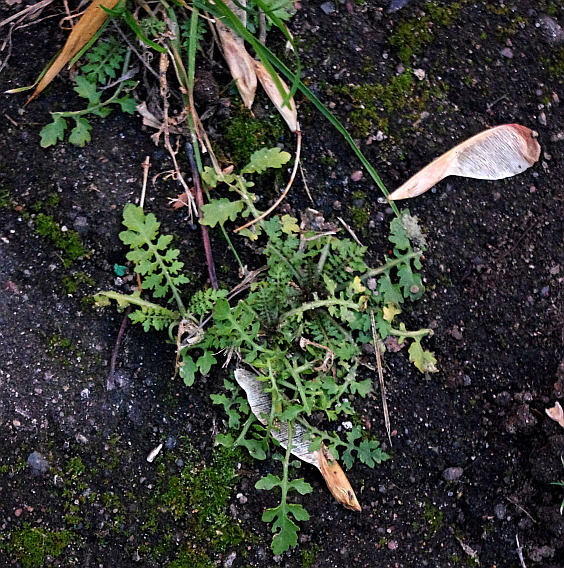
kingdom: Plantae
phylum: Tracheophyta
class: Magnoliopsida
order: Brassicales
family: Brassicaceae
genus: Rorippa
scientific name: Rorippa palustris
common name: Marsh yellow-cress
